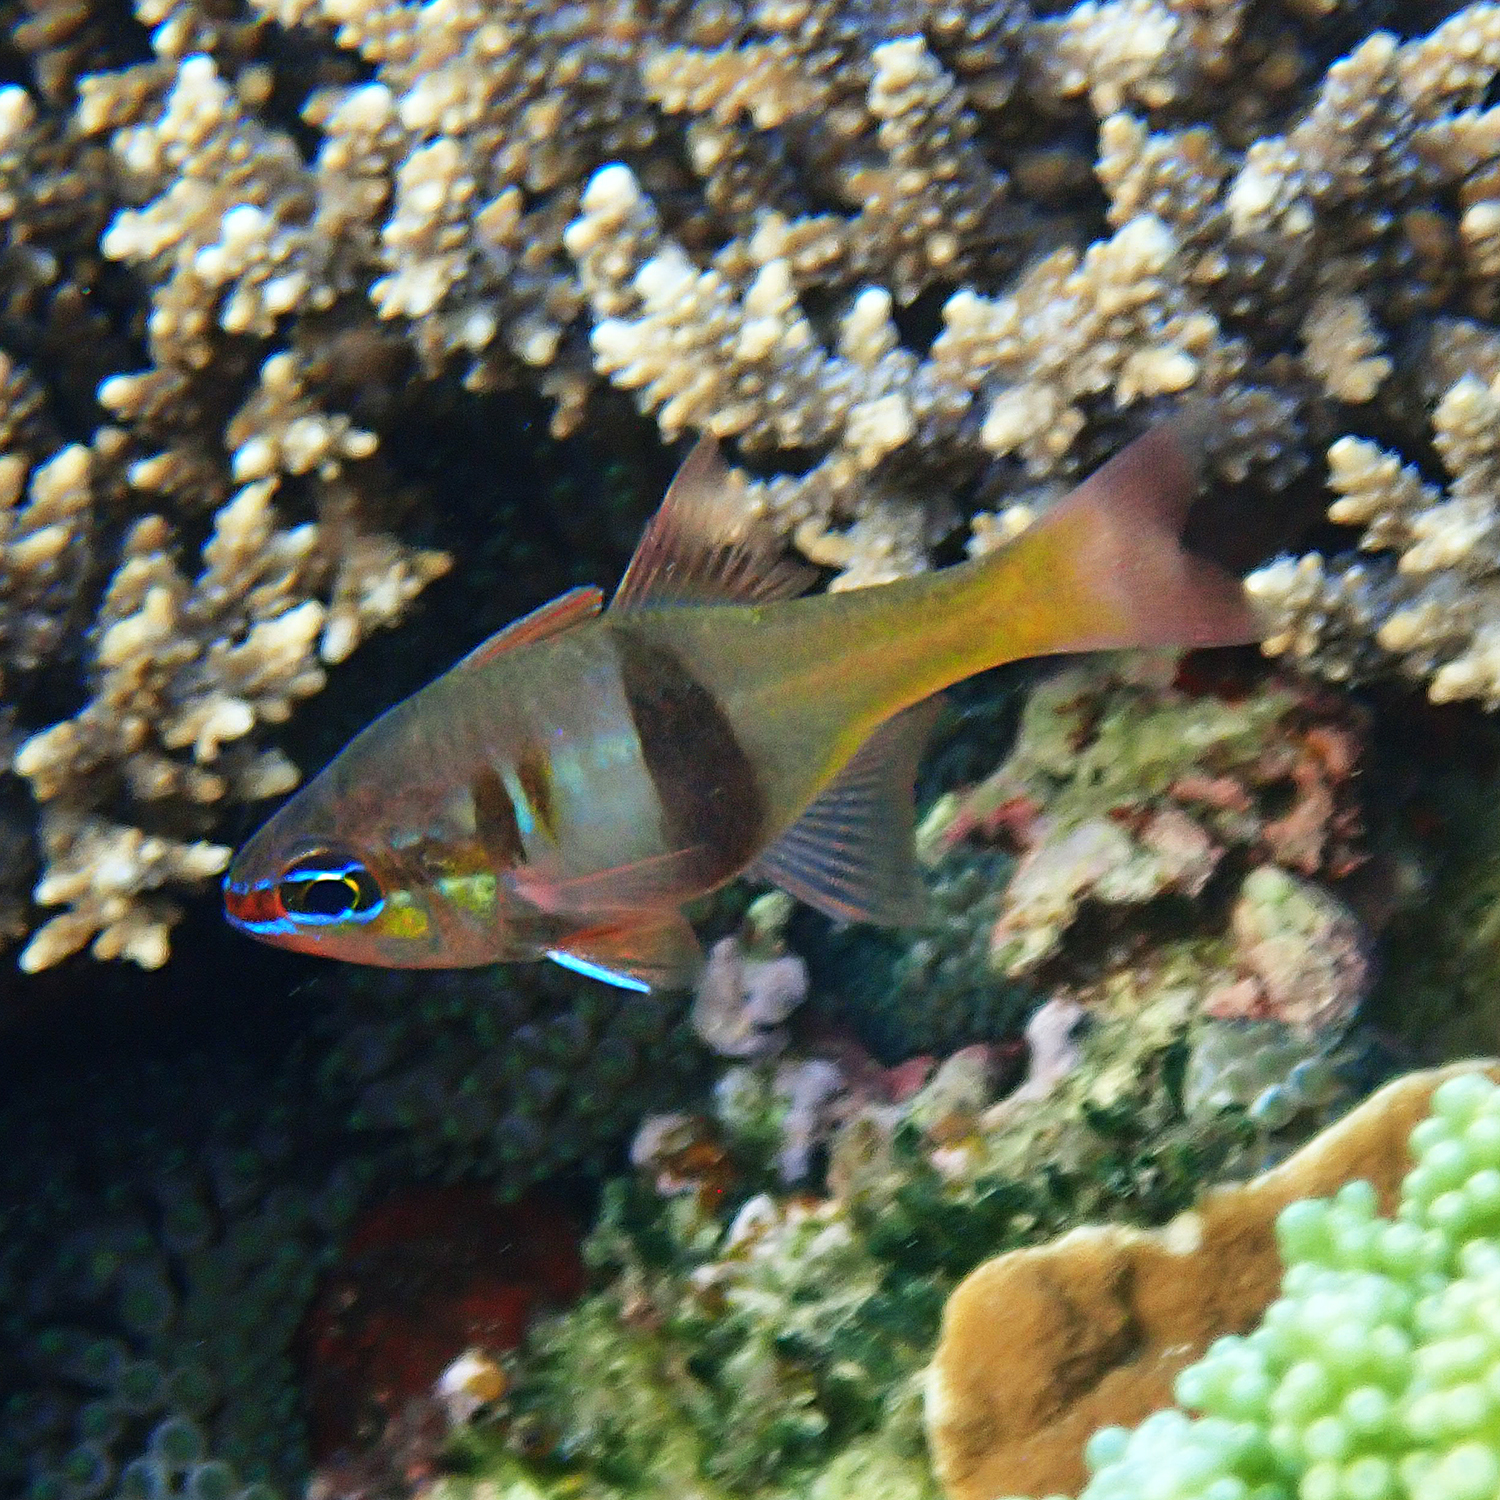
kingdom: Animalia
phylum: Chordata
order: Perciformes
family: Apogonidae
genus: Taeniamia
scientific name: Taeniamia leai
